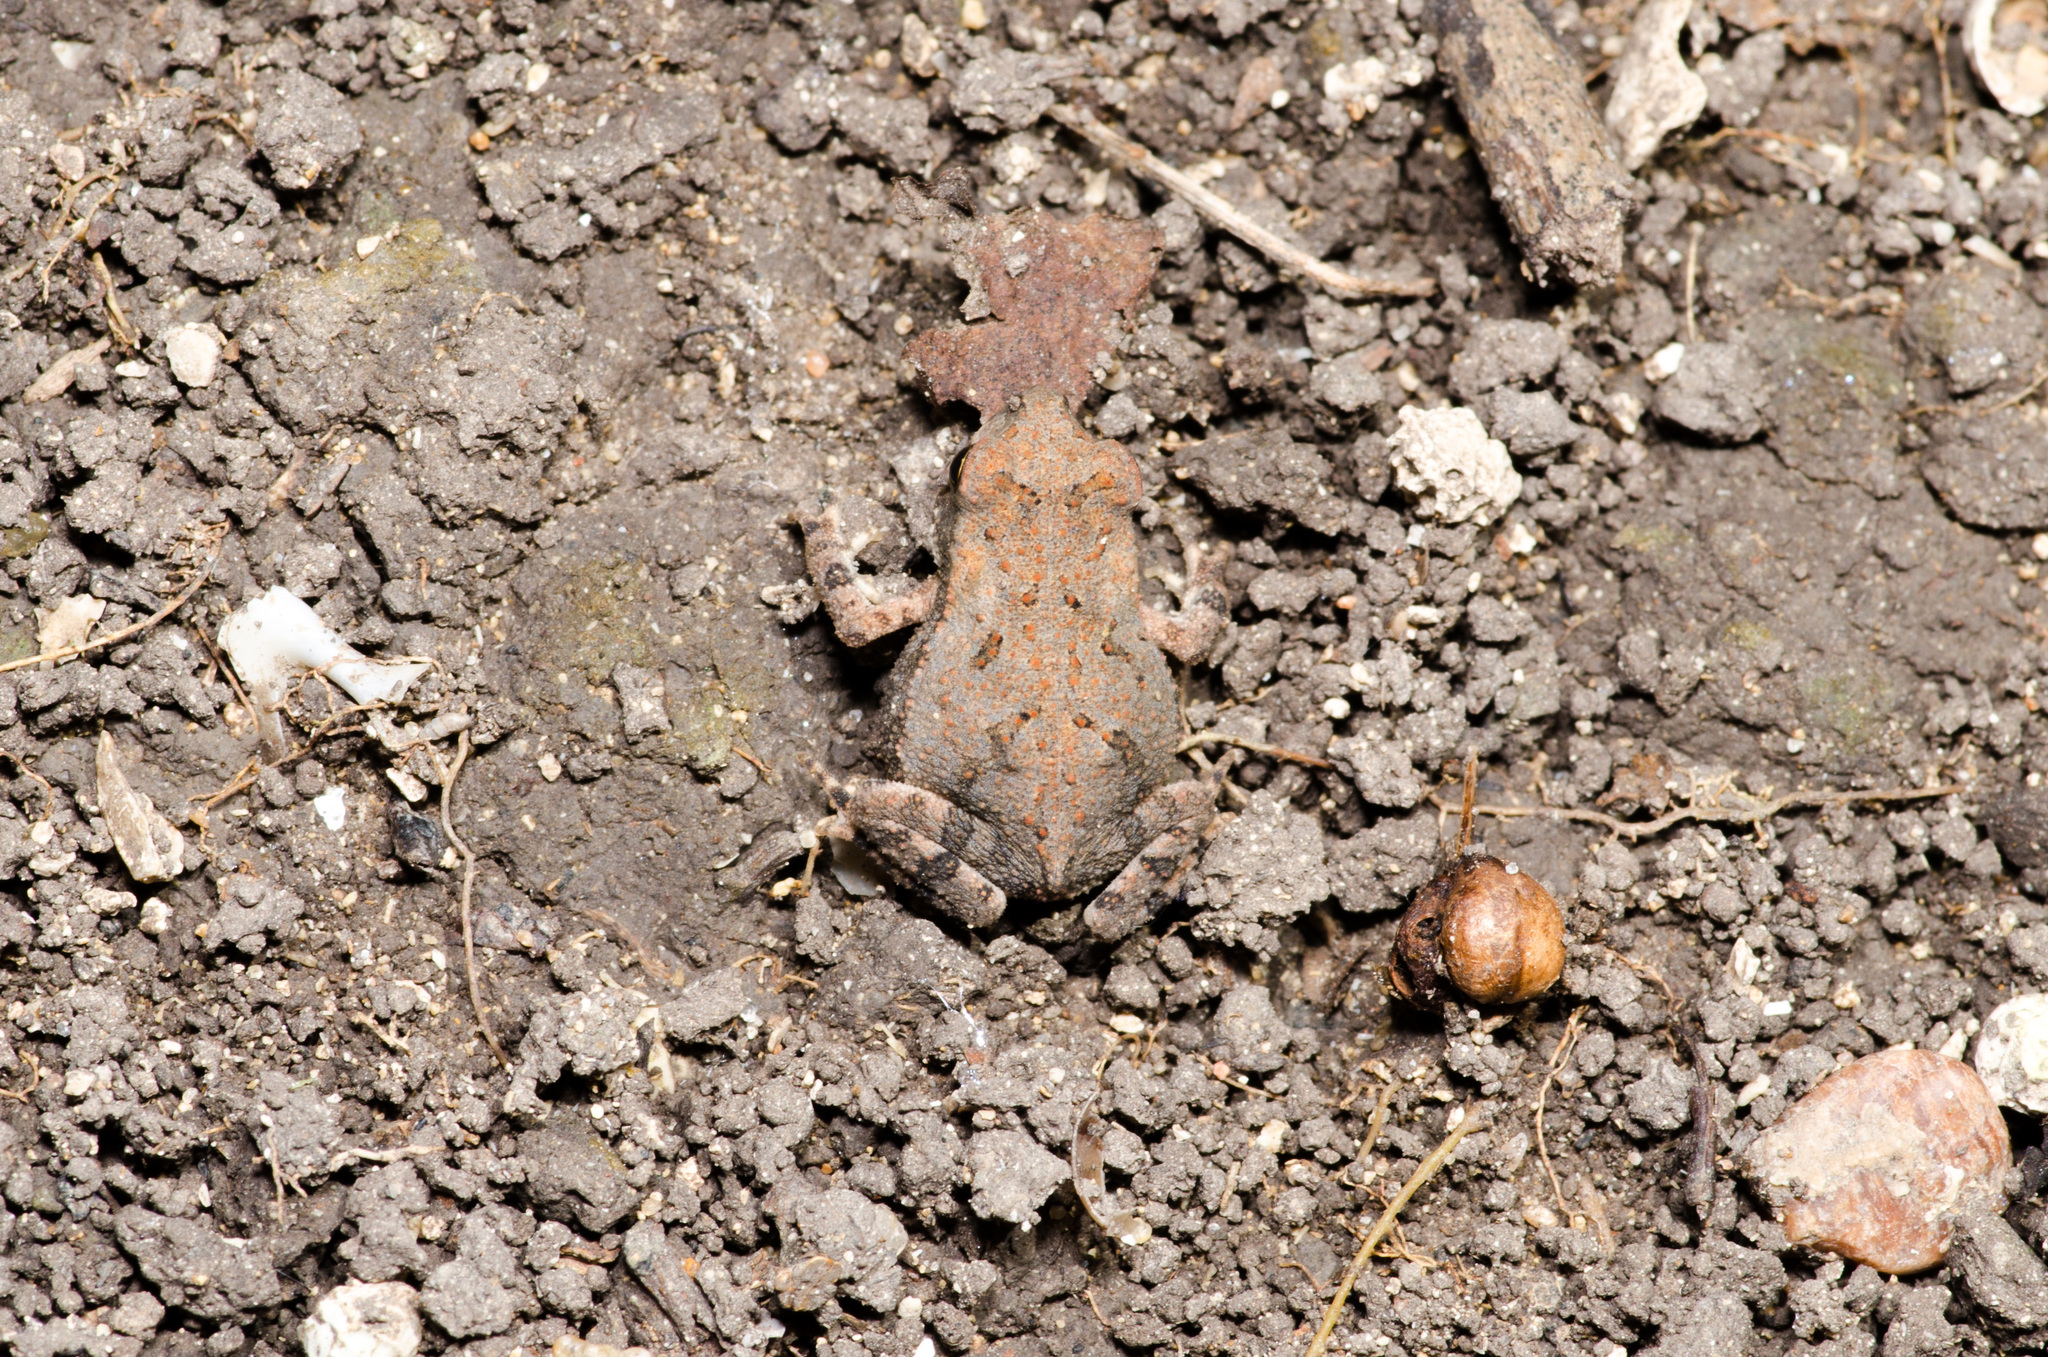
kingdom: Animalia
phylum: Chordata
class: Amphibia
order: Anura
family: Bufonidae
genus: Incilius
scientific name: Incilius nebulifer
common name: Gulf coast toad
